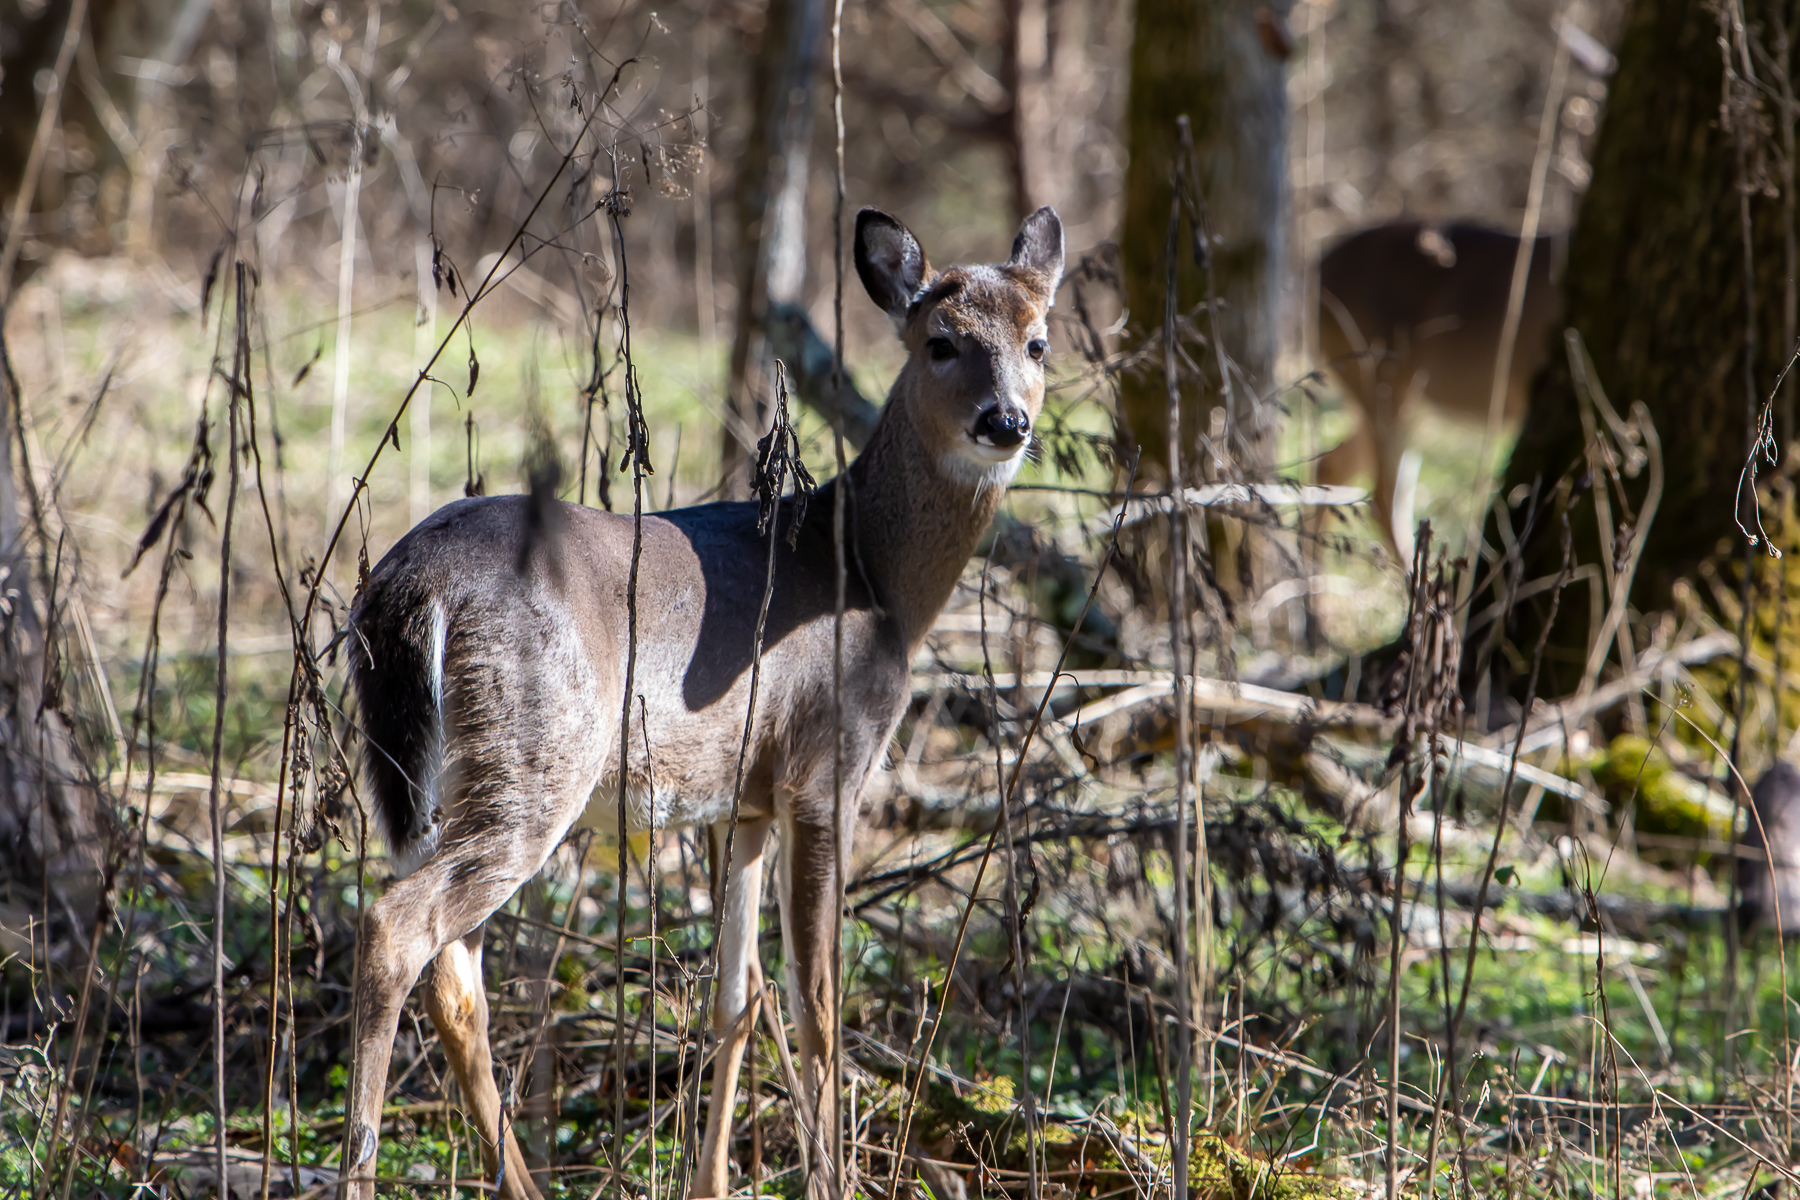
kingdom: Animalia
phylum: Chordata
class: Mammalia
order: Artiodactyla
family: Cervidae
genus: Odocoileus
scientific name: Odocoileus virginianus
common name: White-tailed deer
